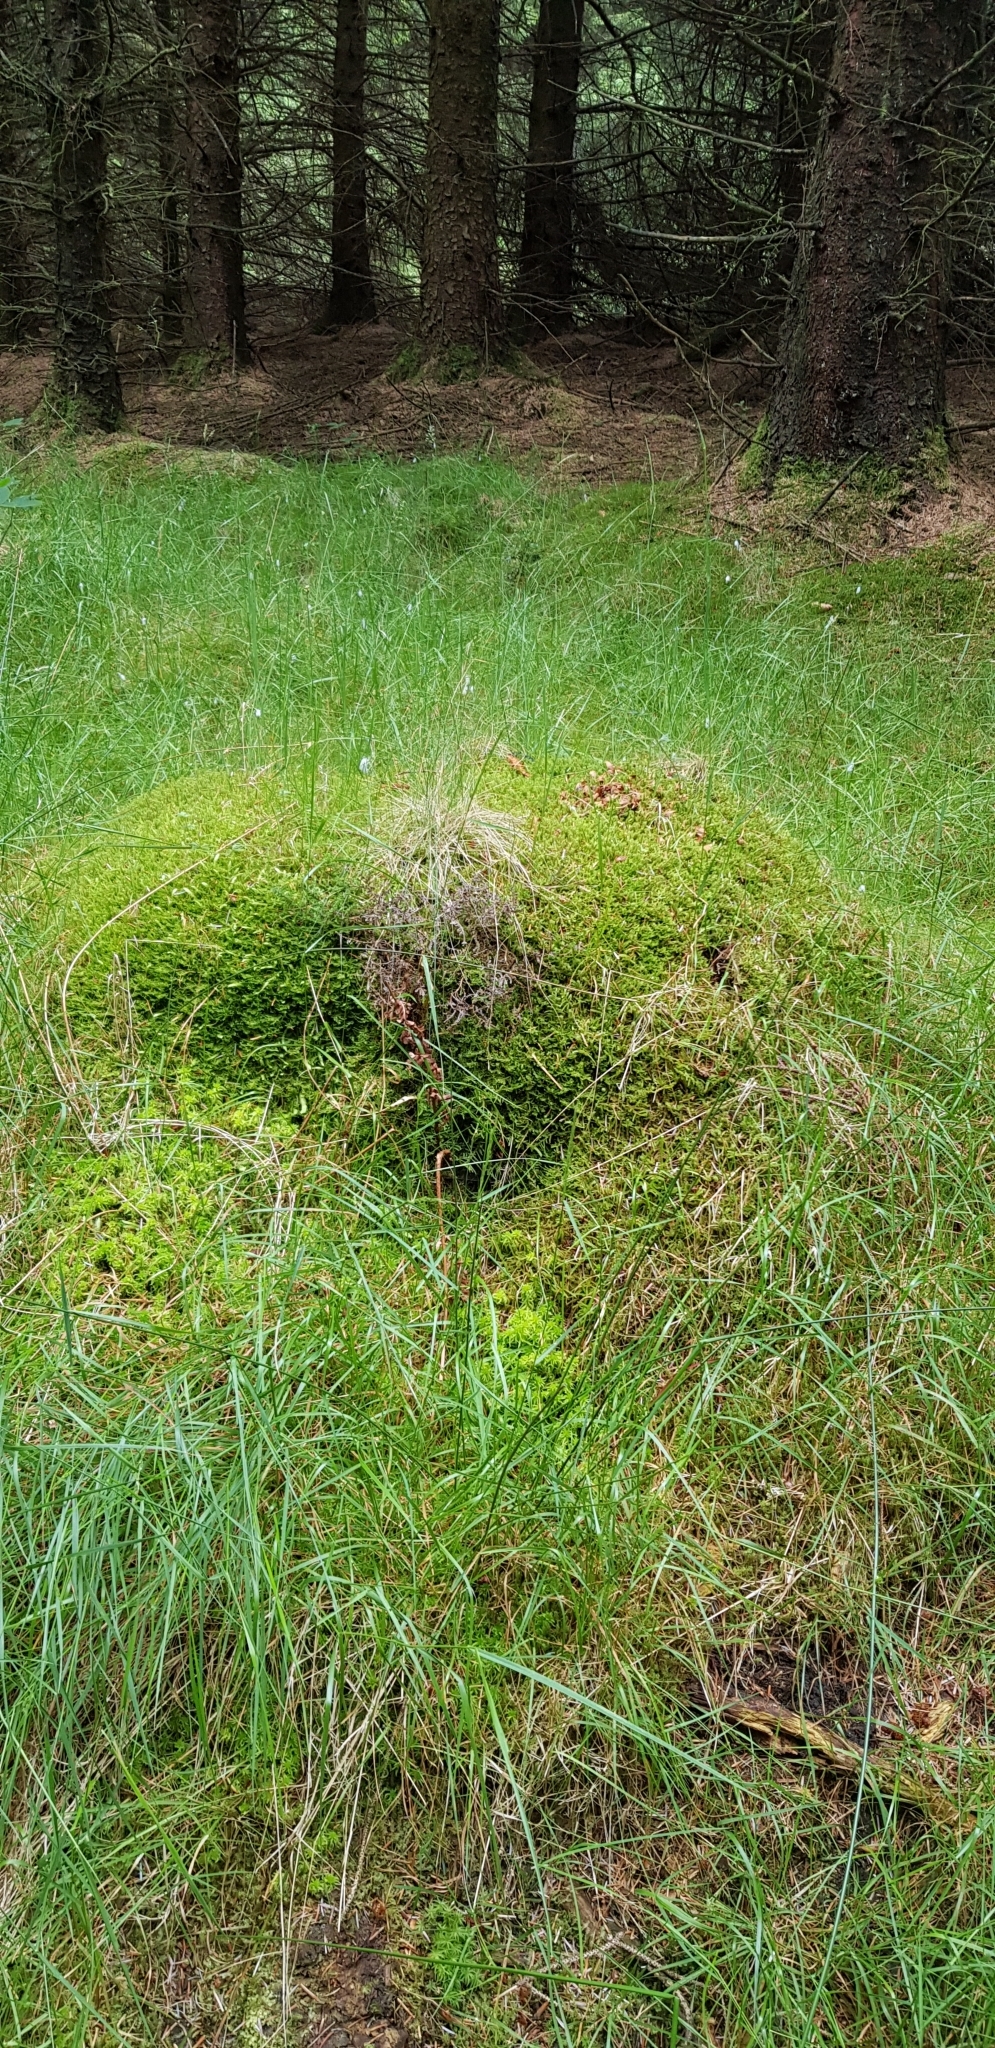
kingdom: Plantae
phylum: Bryophyta
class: Bryopsida
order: Hypnales
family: Plagiotheciaceae
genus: Plagiothecium
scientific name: Plagiothecium undulatum
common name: Waved silk-moss
